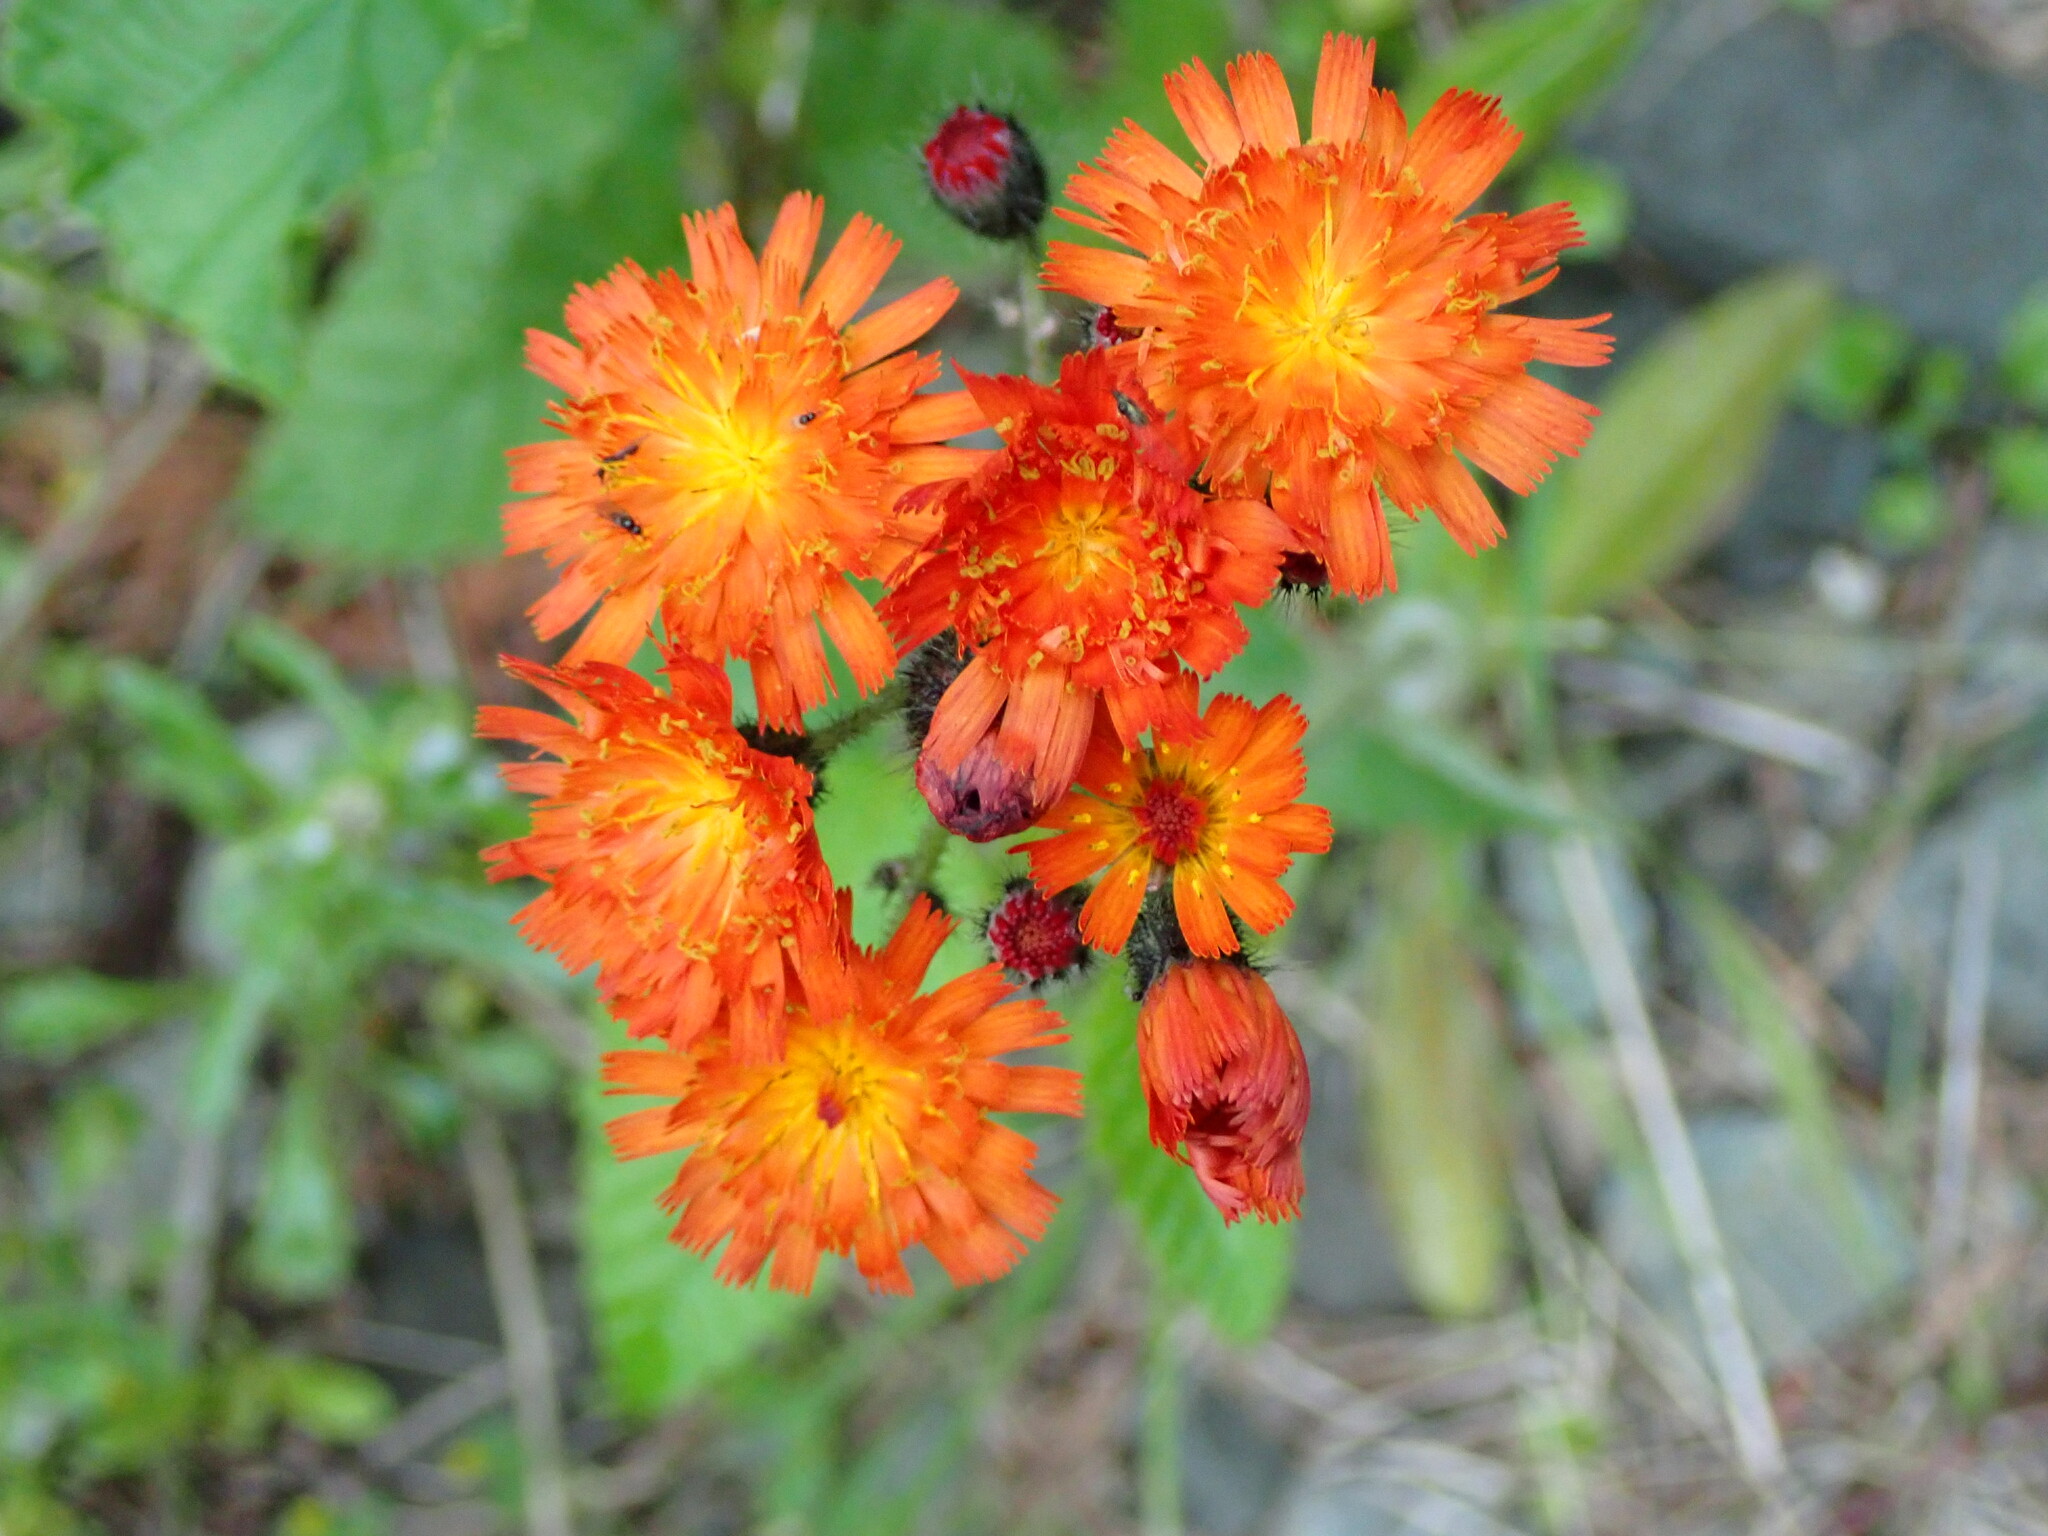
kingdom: Plantae
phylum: Tracheophyta
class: Magnoliopsida
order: Asterales
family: Asteraceae
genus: Pilosella
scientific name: Pilosella aurantiaca
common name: Fox-and-cubs
